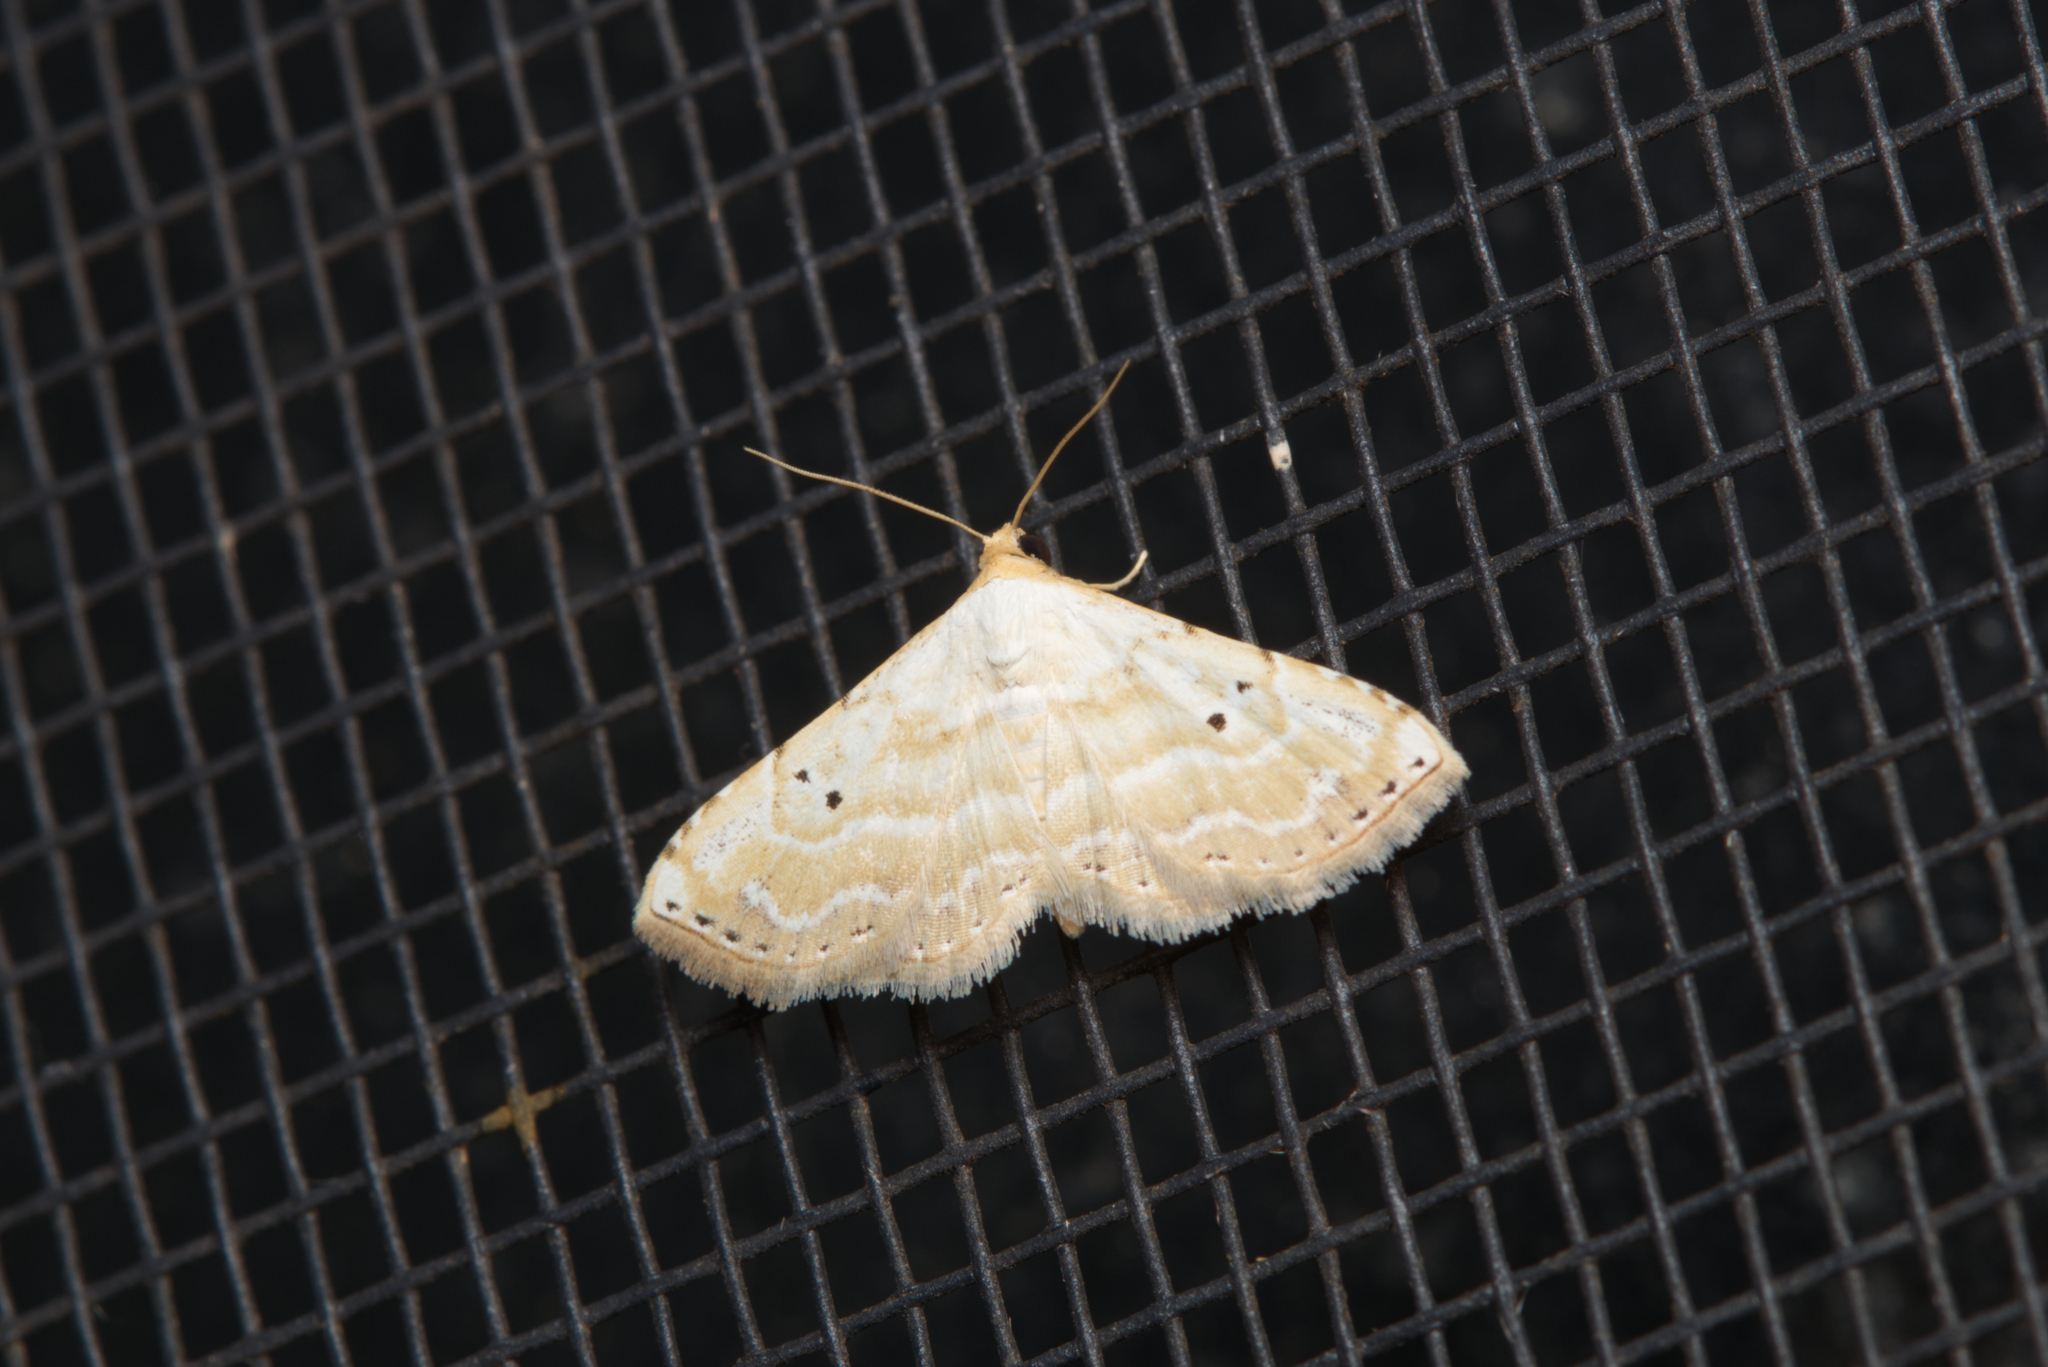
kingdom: Animalia
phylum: Arthropoda
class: Insecta
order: Lepidoptera
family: Noctuidae
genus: Oruza
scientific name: Oruza cariosa
